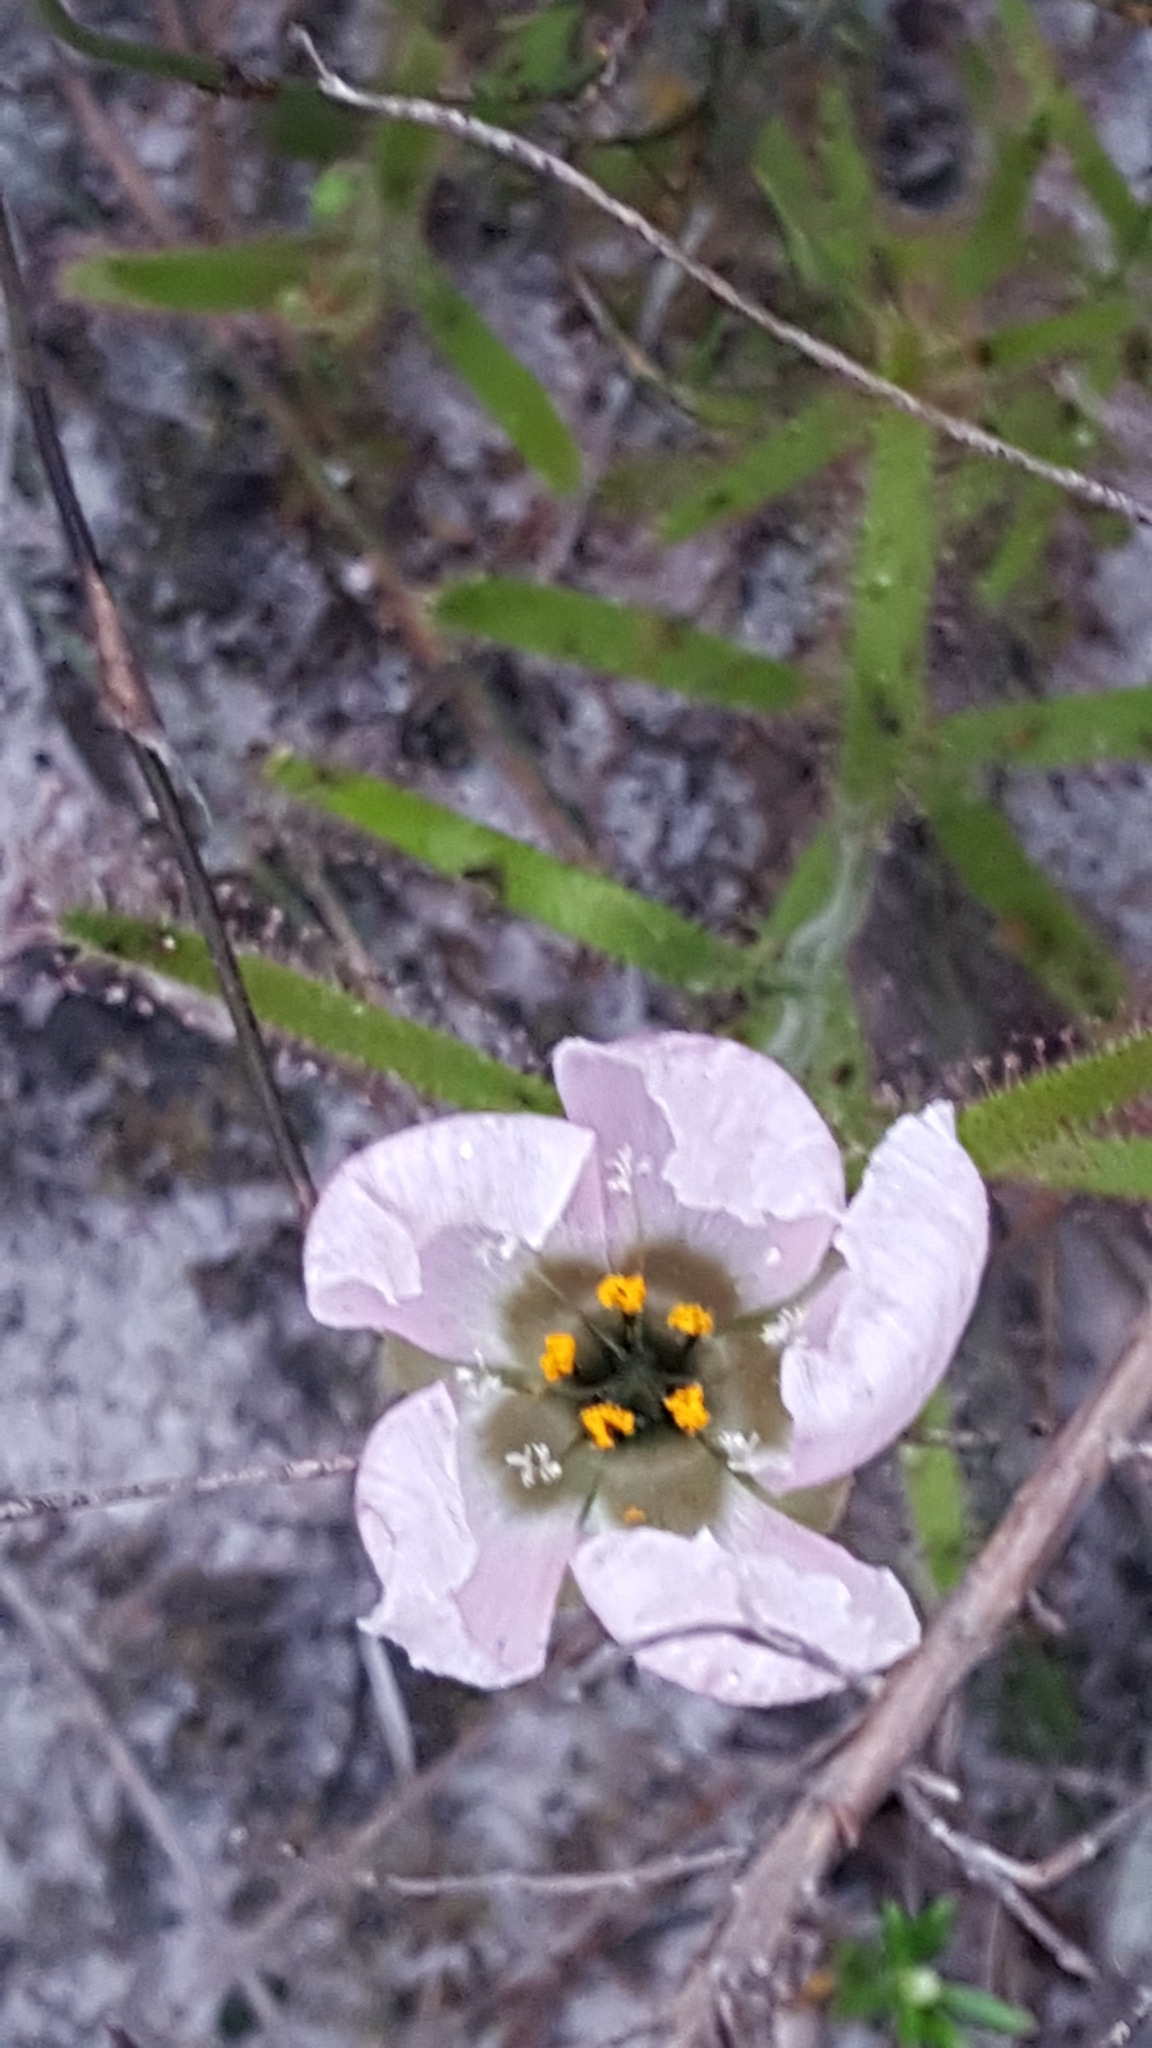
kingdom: Plantae
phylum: Tracheophyta
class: Magnoliopsida
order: Caryophyllales
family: Droseraceae
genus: Drosera
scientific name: Drosera cistiflora
